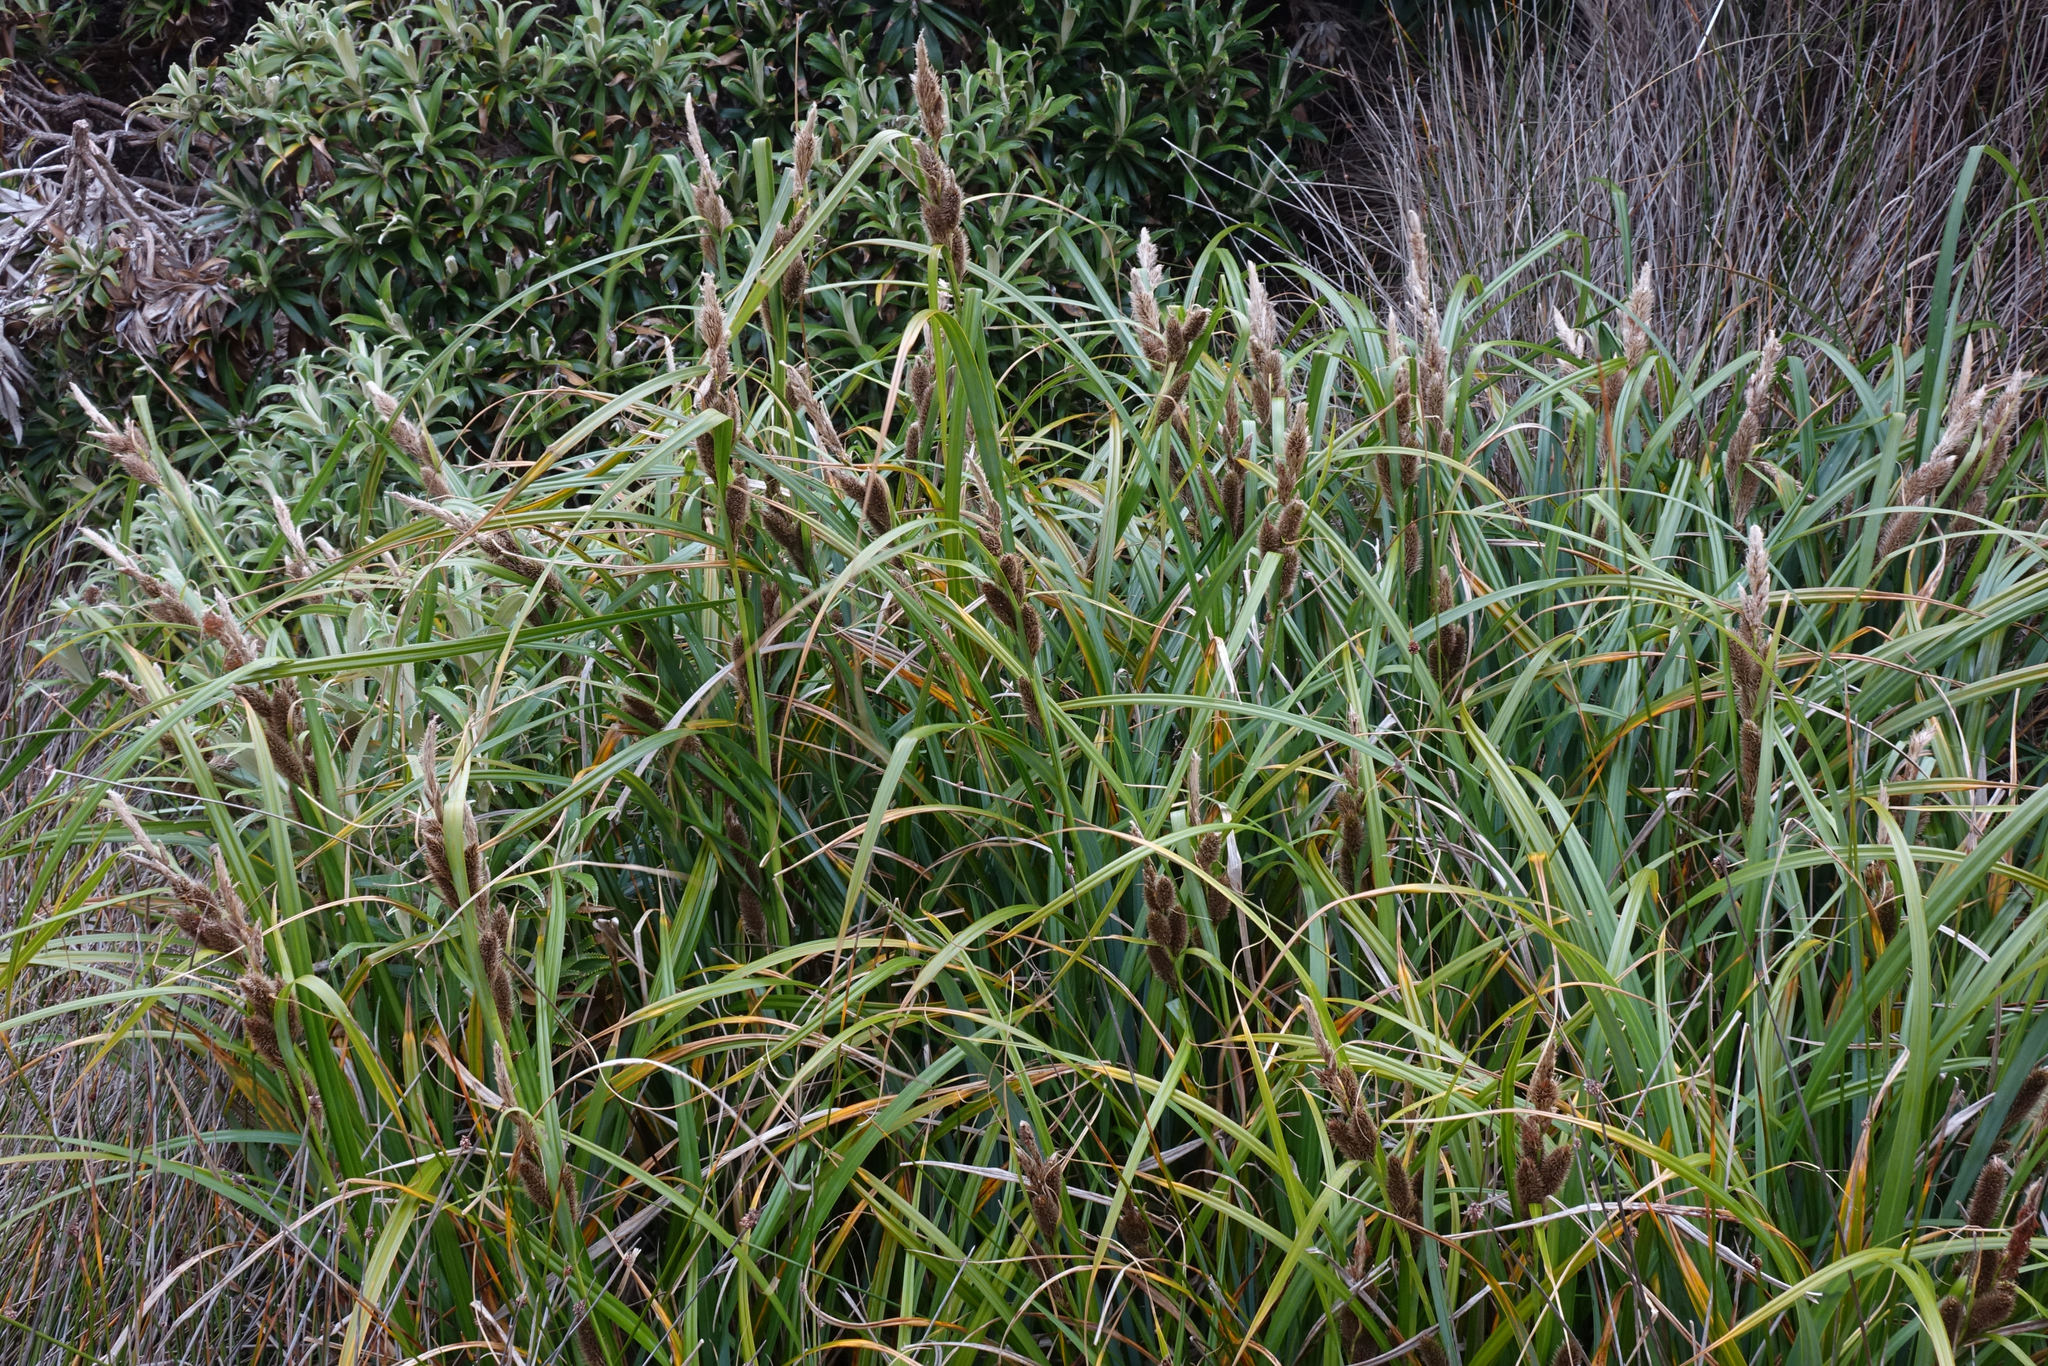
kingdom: Plantae
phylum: Tracheophyta
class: Liliopsida
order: Poales
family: Cyperaceae
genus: Carex
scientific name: Carex trifida
